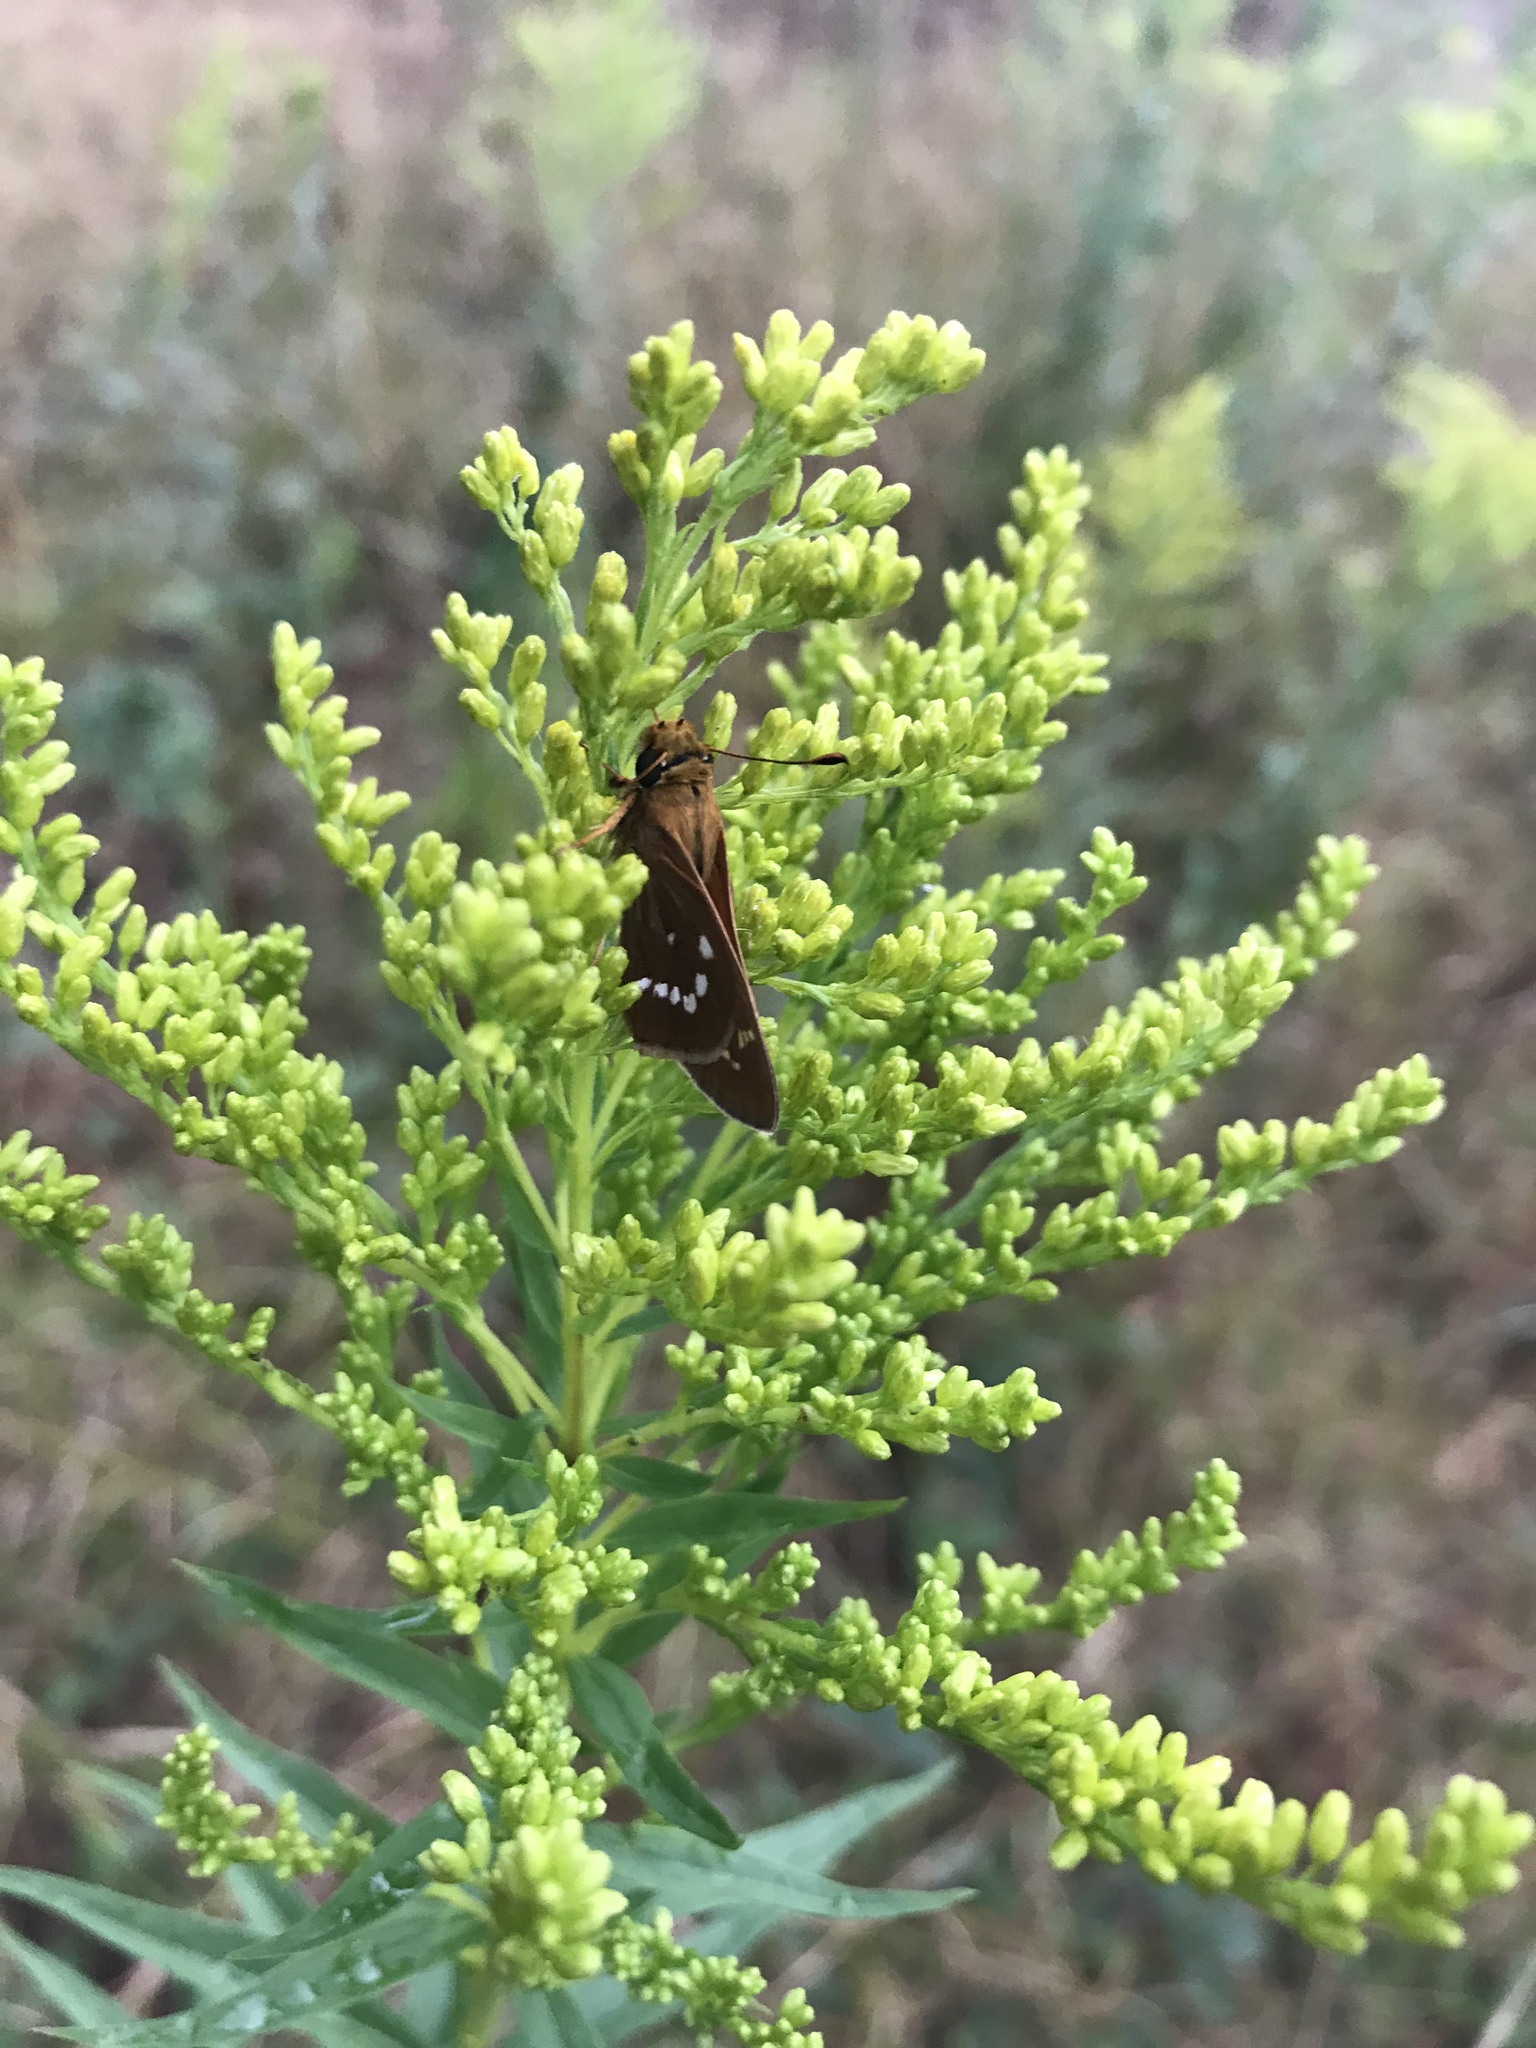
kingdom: Animalia
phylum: Arthropoda
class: Insecta
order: Lepidoptera
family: Hesperiidae
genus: Hesperia
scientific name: Hesperia leonardus
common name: Leonard's skipper
